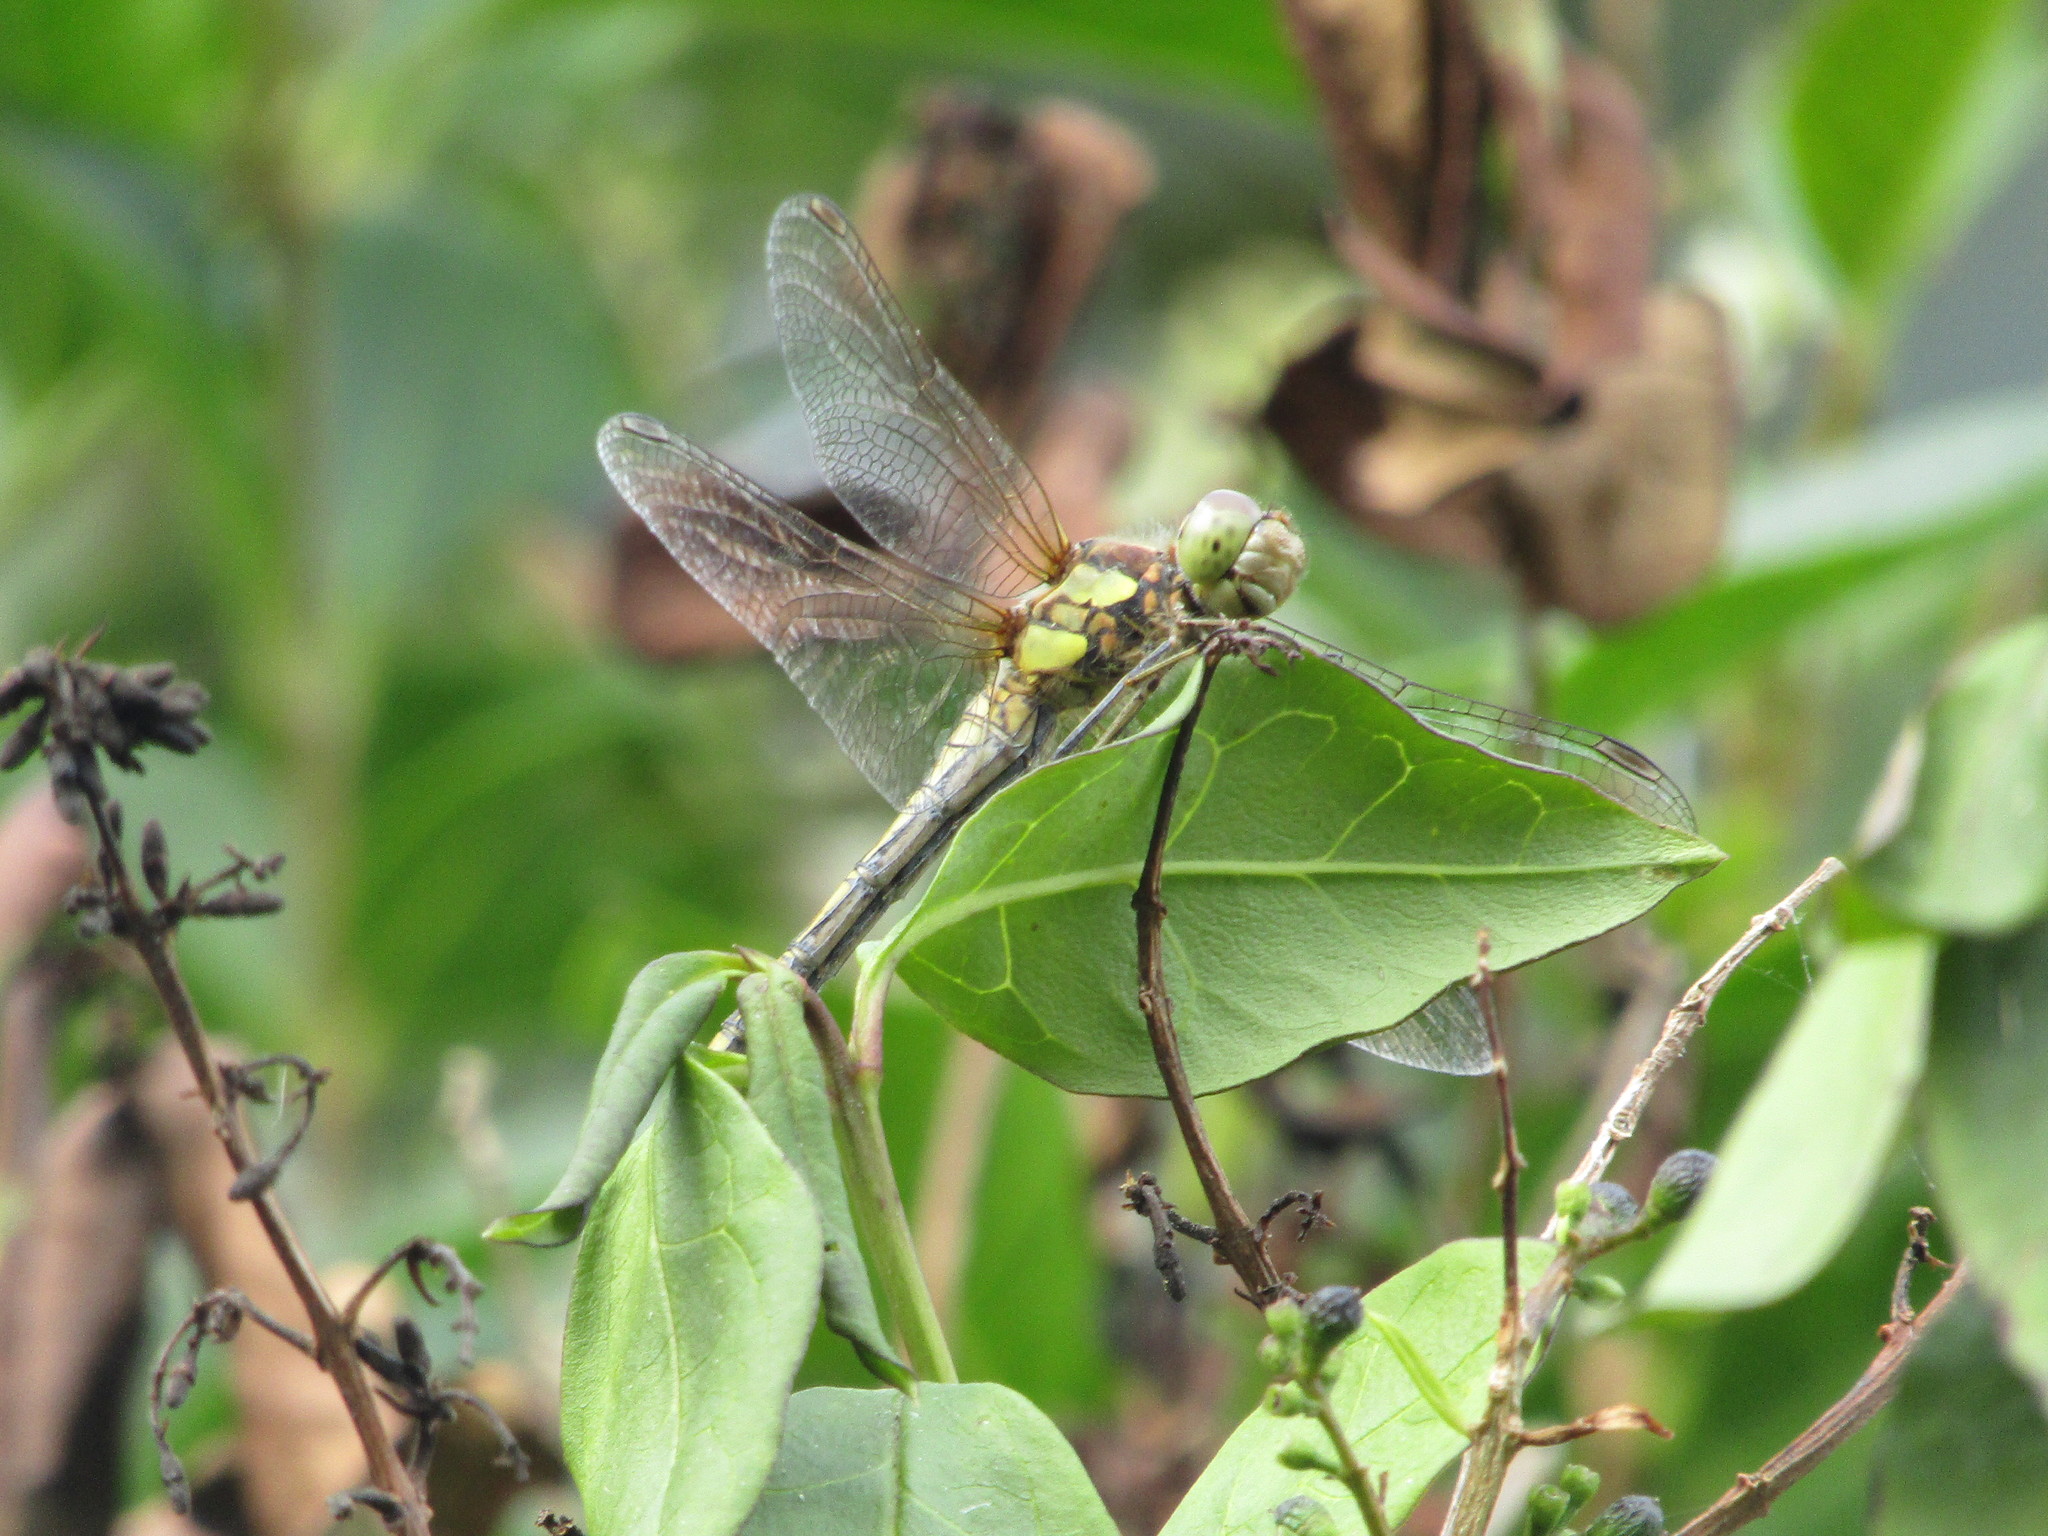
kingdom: Animalia
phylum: Arthropoda
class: Insecta
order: Odonata
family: Libellulidae
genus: Sympetrum
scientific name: Sympetrum striolatum
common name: Common darter
